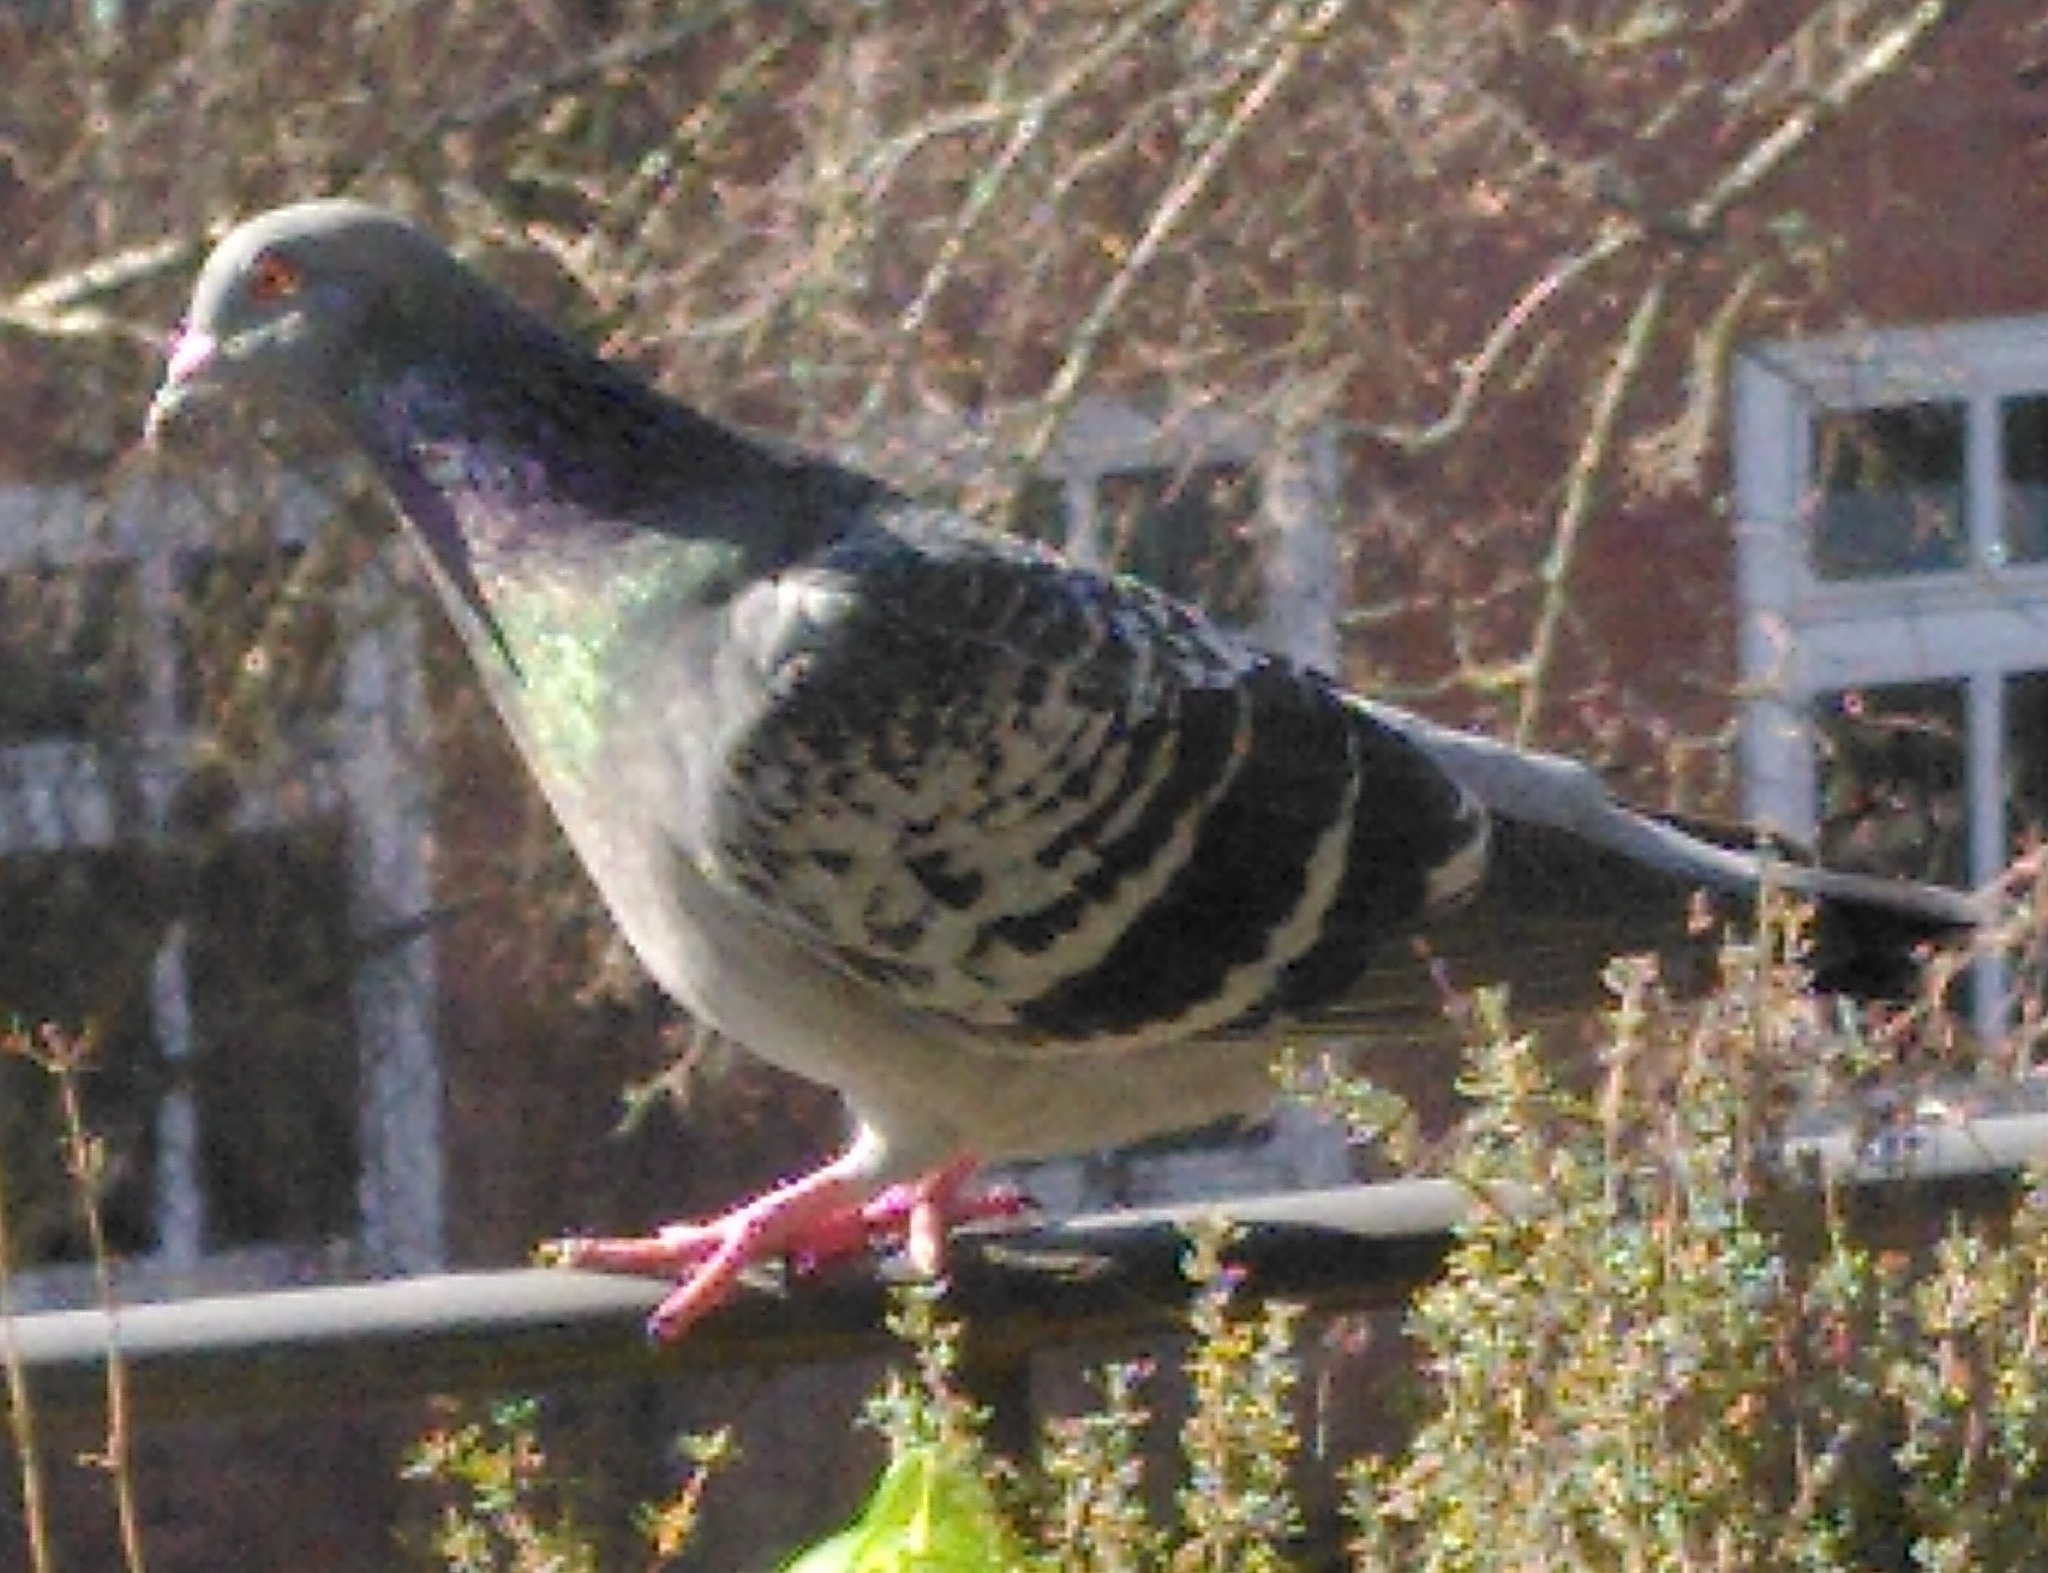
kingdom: Animalia
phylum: Chordata
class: Aves
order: Columbiformes
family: Columbidae
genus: Columba
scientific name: Columba livia
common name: Rock pigeon
